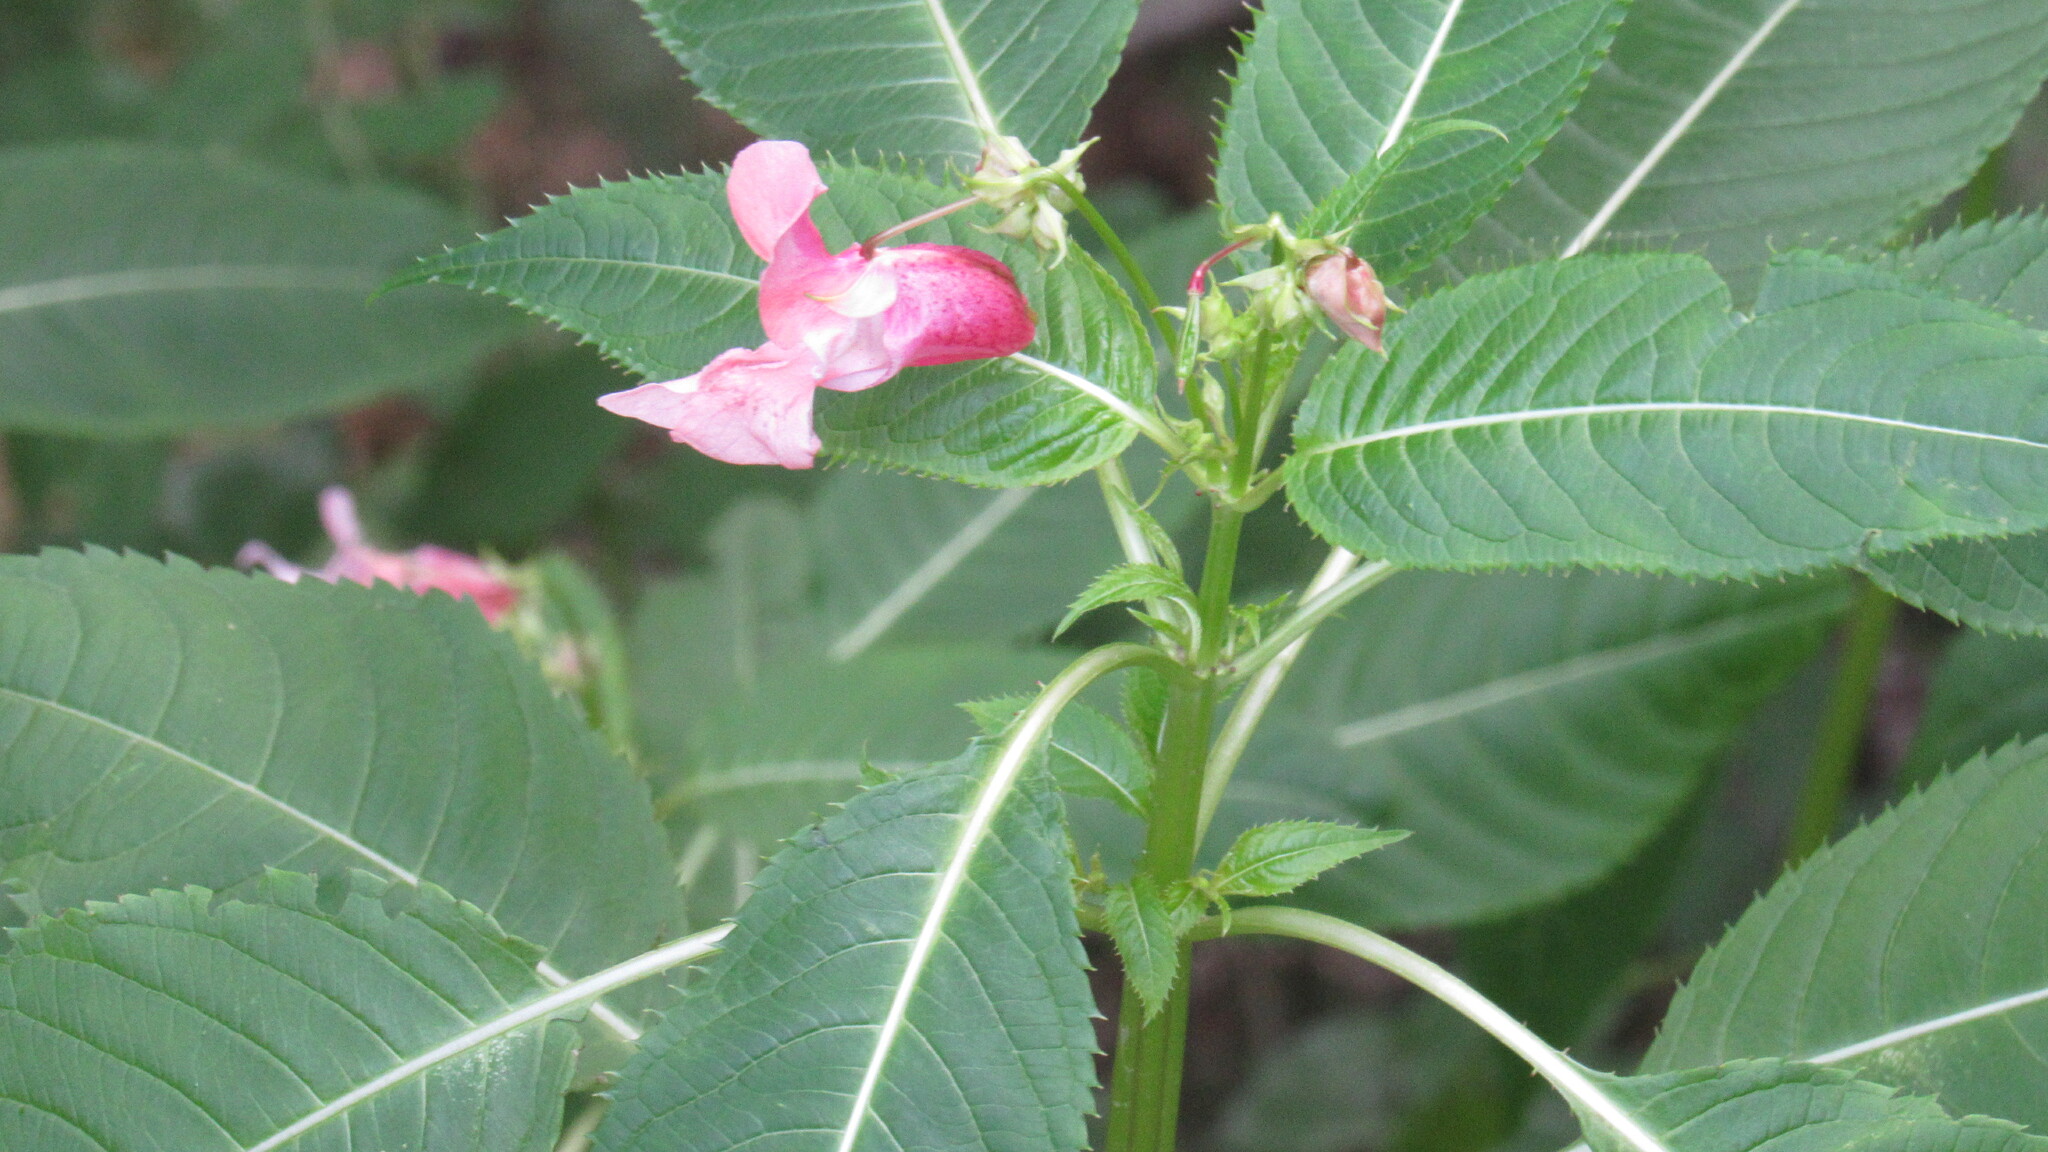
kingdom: Plantae
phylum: Tracheophyta
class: Magnoliopsida
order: Ericales
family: Balsaminaceae
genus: Impatiens
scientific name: Impatiens glandulifera
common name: Himalayan balsam
